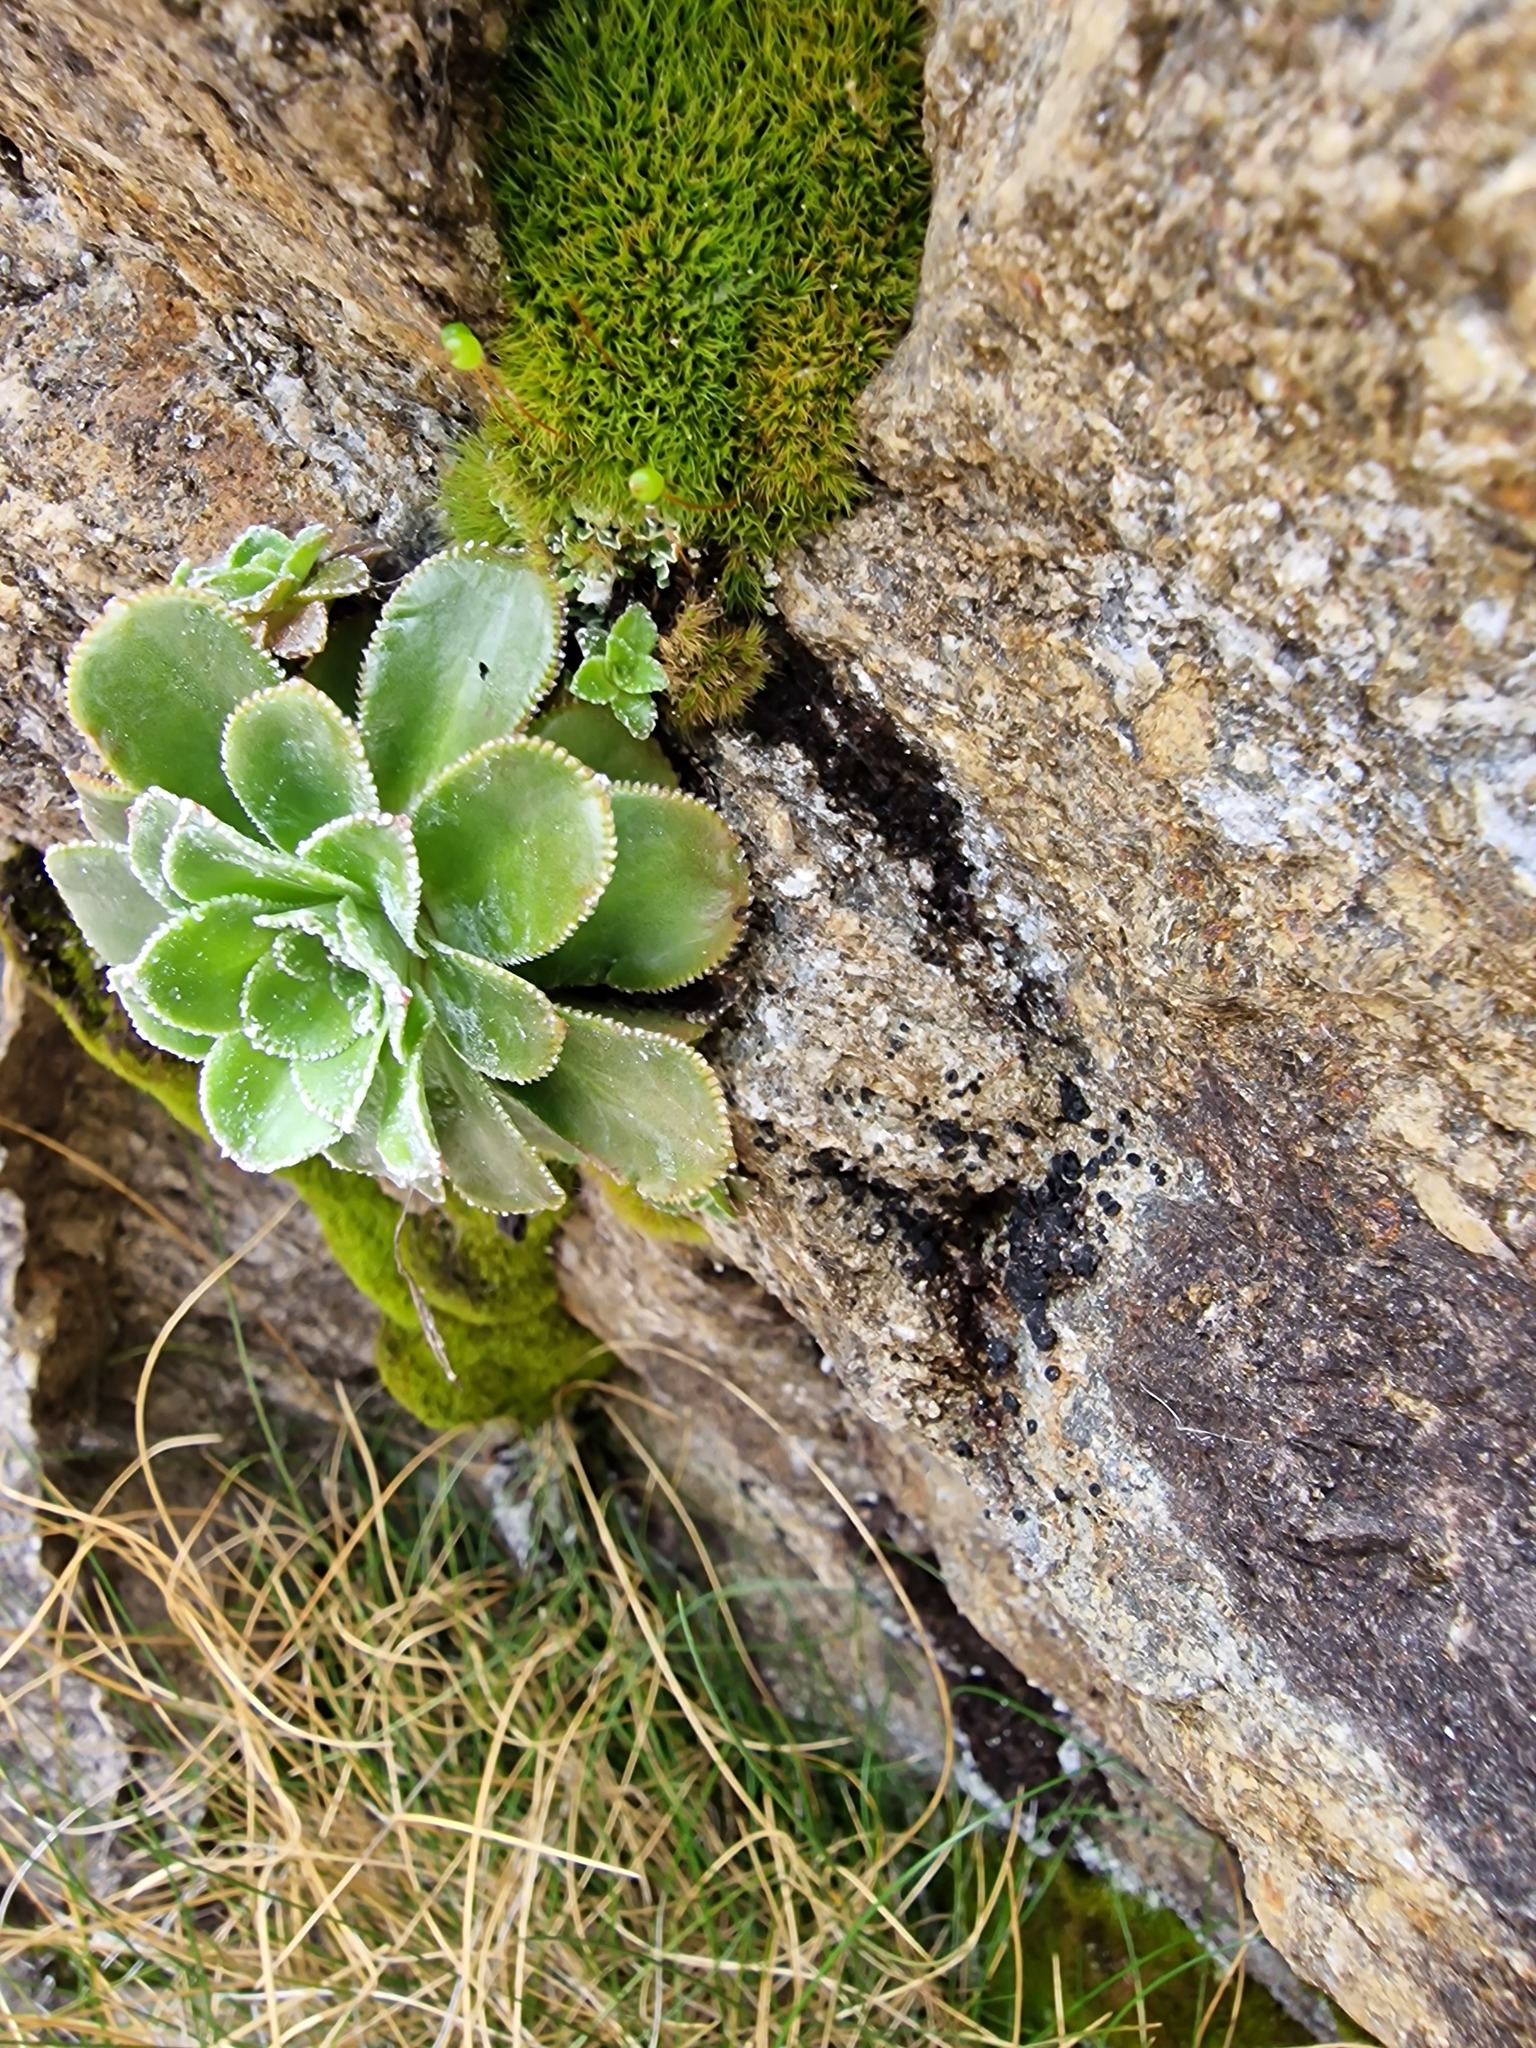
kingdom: Plantae
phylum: Tracheophyta
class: Magnoliopsida
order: Saxifragales
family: Saxifragaceae
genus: Saxifraga
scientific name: Saxifraga cotyledon
